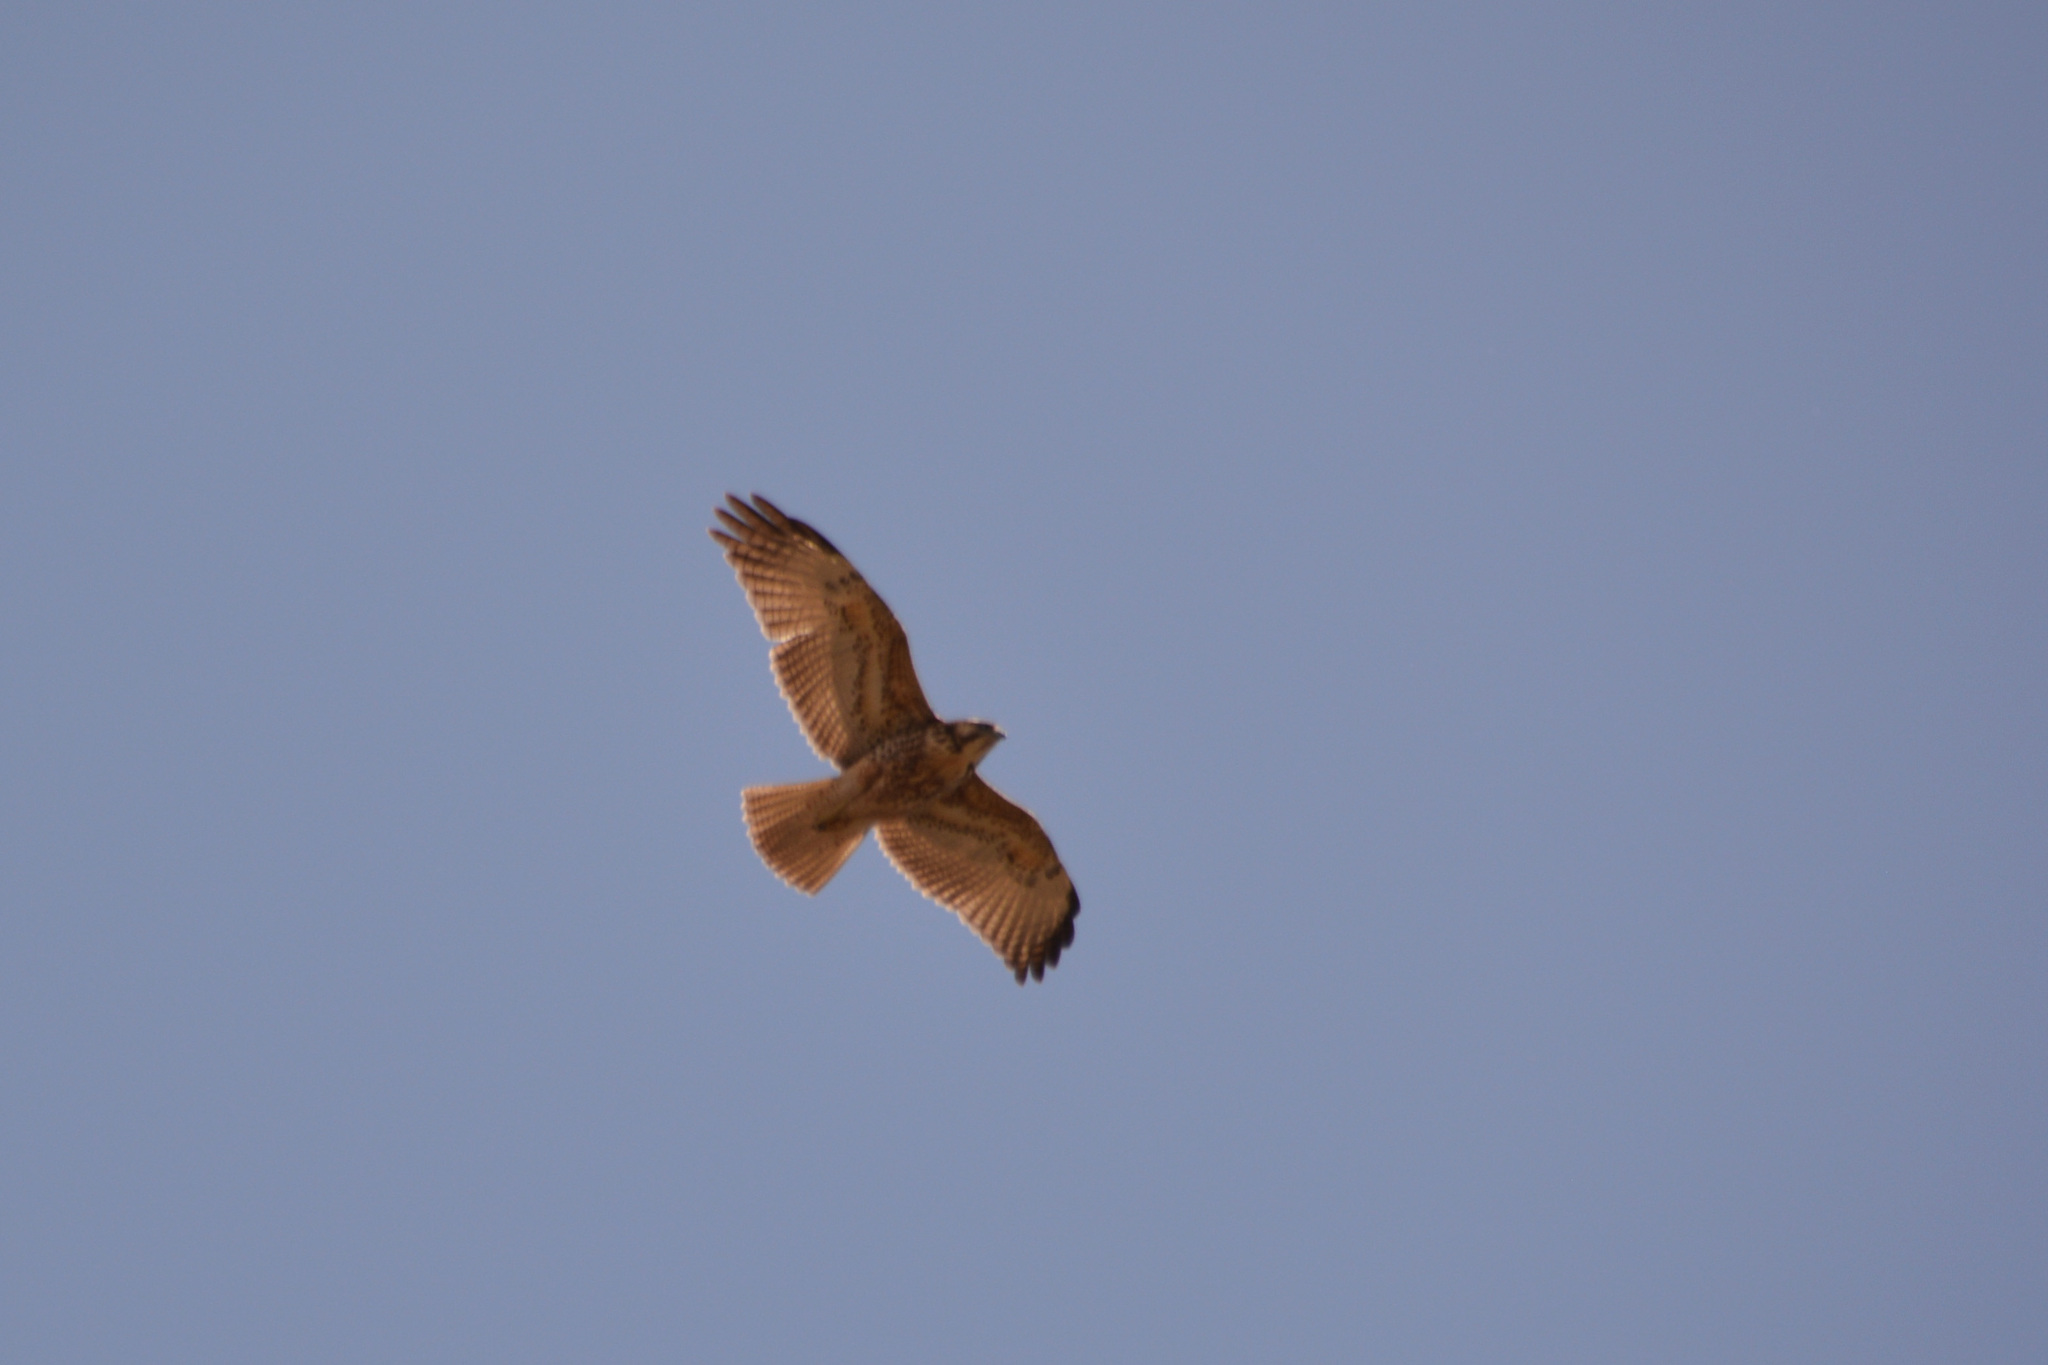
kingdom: Animalia
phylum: Chordata
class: Aves
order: Accipitriformes
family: Accipitridae
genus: Buteo
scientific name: Buteo polyosoma
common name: Variable hawk
